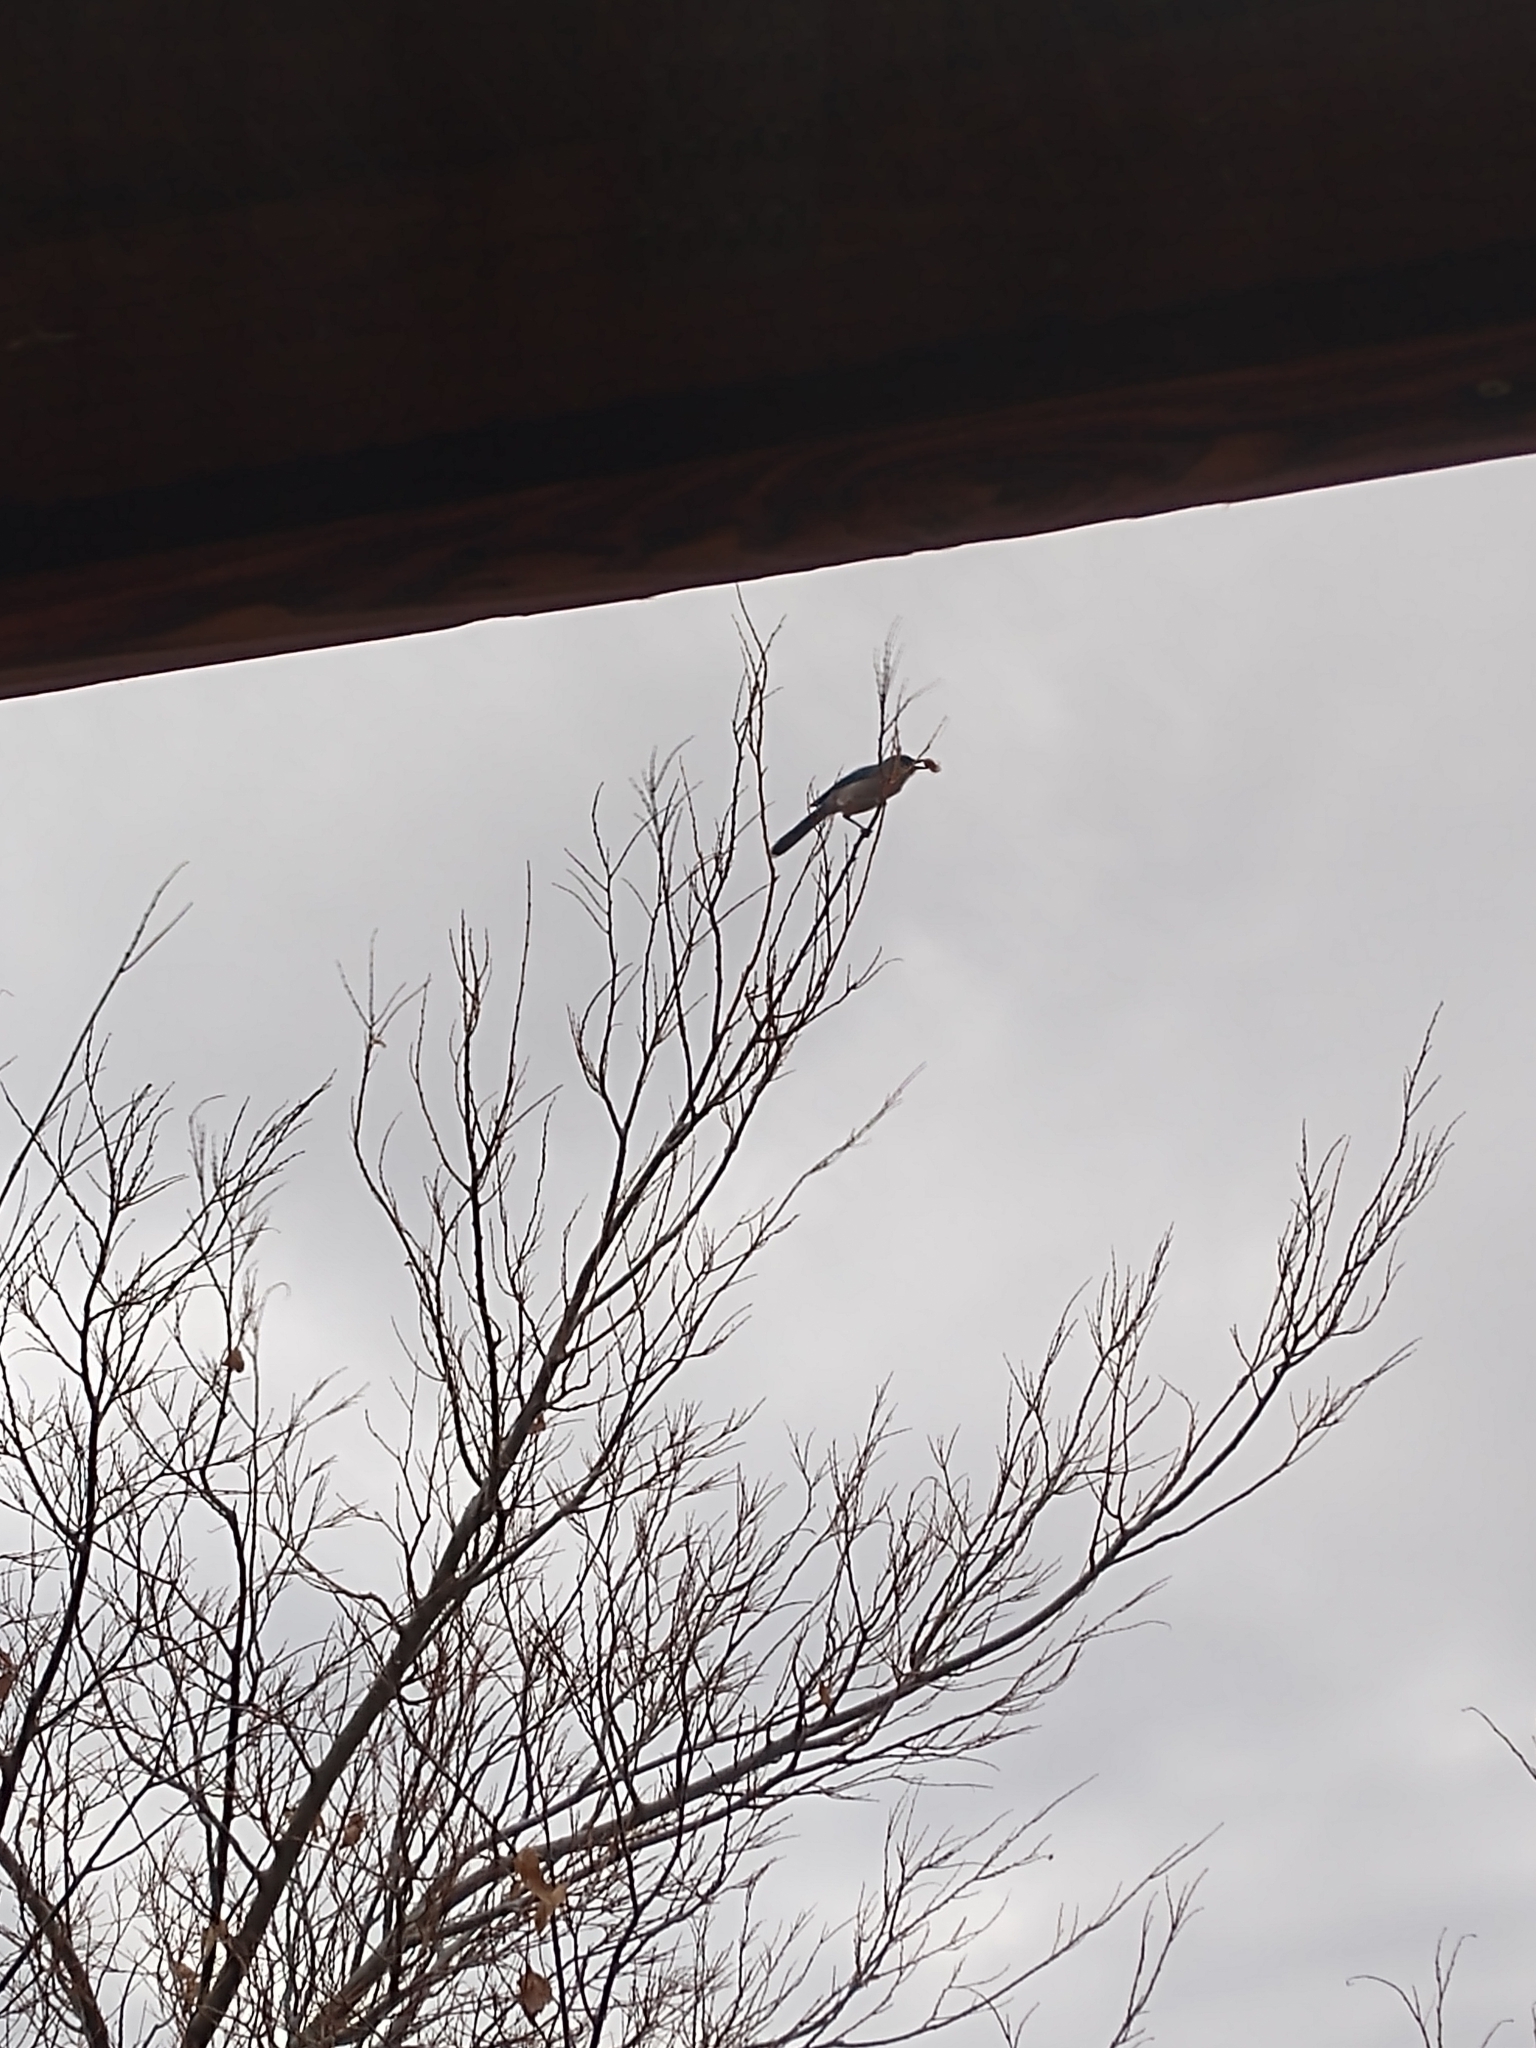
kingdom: Animalia
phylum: Chordata
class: Aves
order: Passeriformes
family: Corvidae
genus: Aphelocoma
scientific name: Aphelocoma woodhouseii
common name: Woodhouse's scrub-jay
